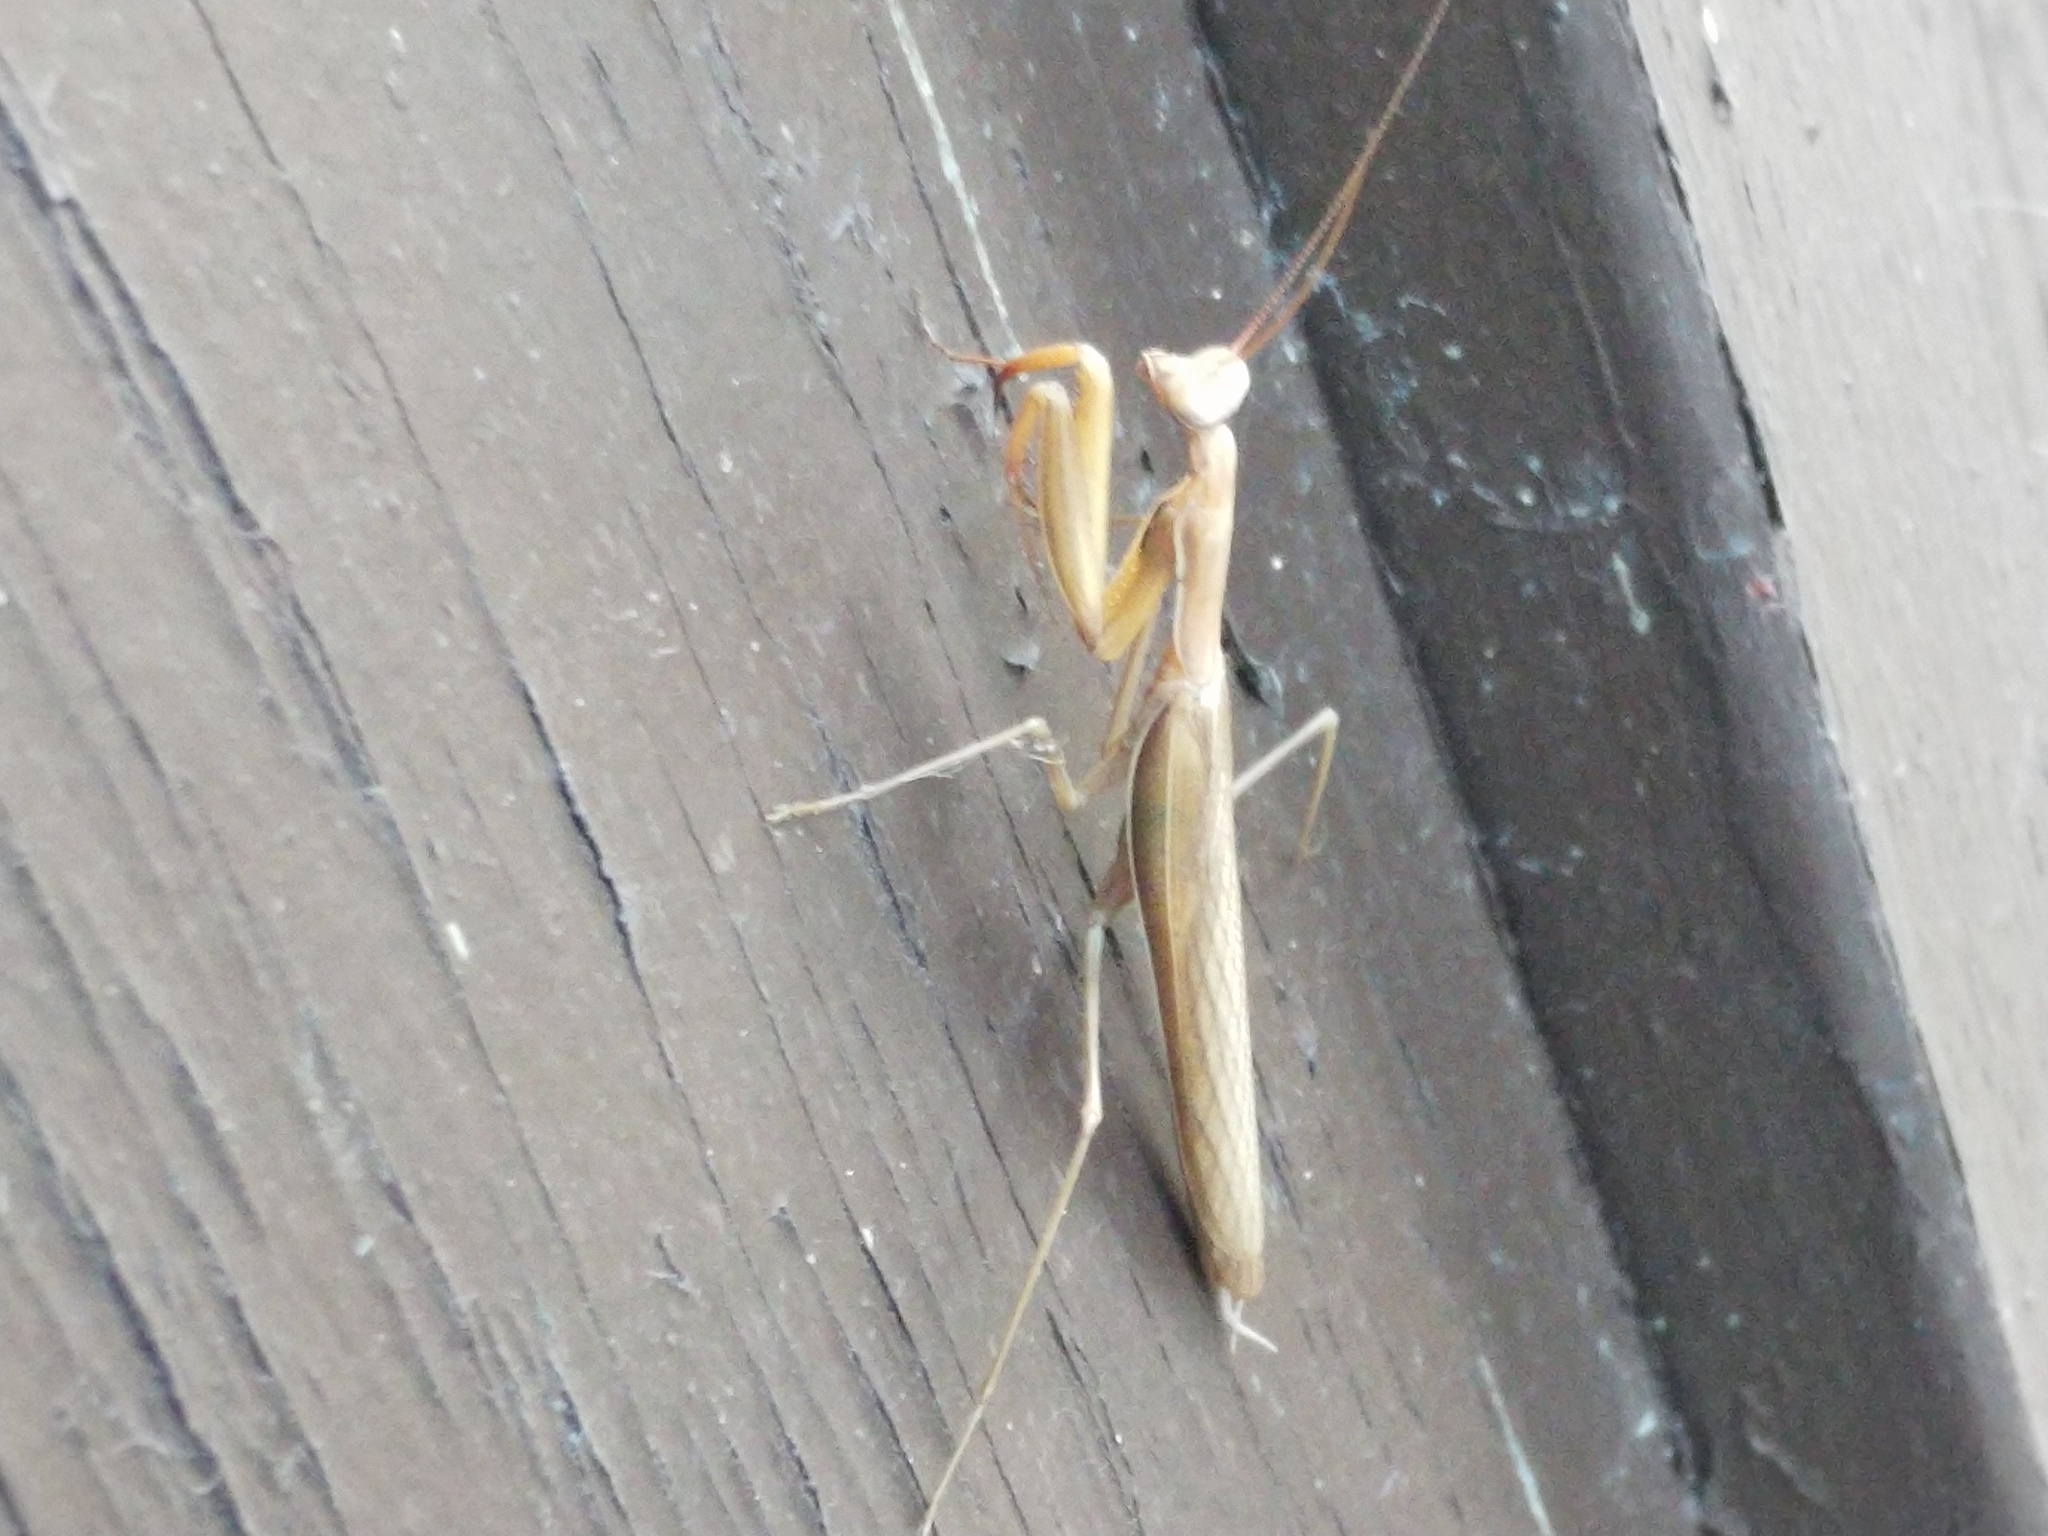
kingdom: Animalia
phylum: Arthropoda
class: Insecta
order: Mantodea
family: Mantidae
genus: Mantis
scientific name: Mantis religiosa
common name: Praying mantis
